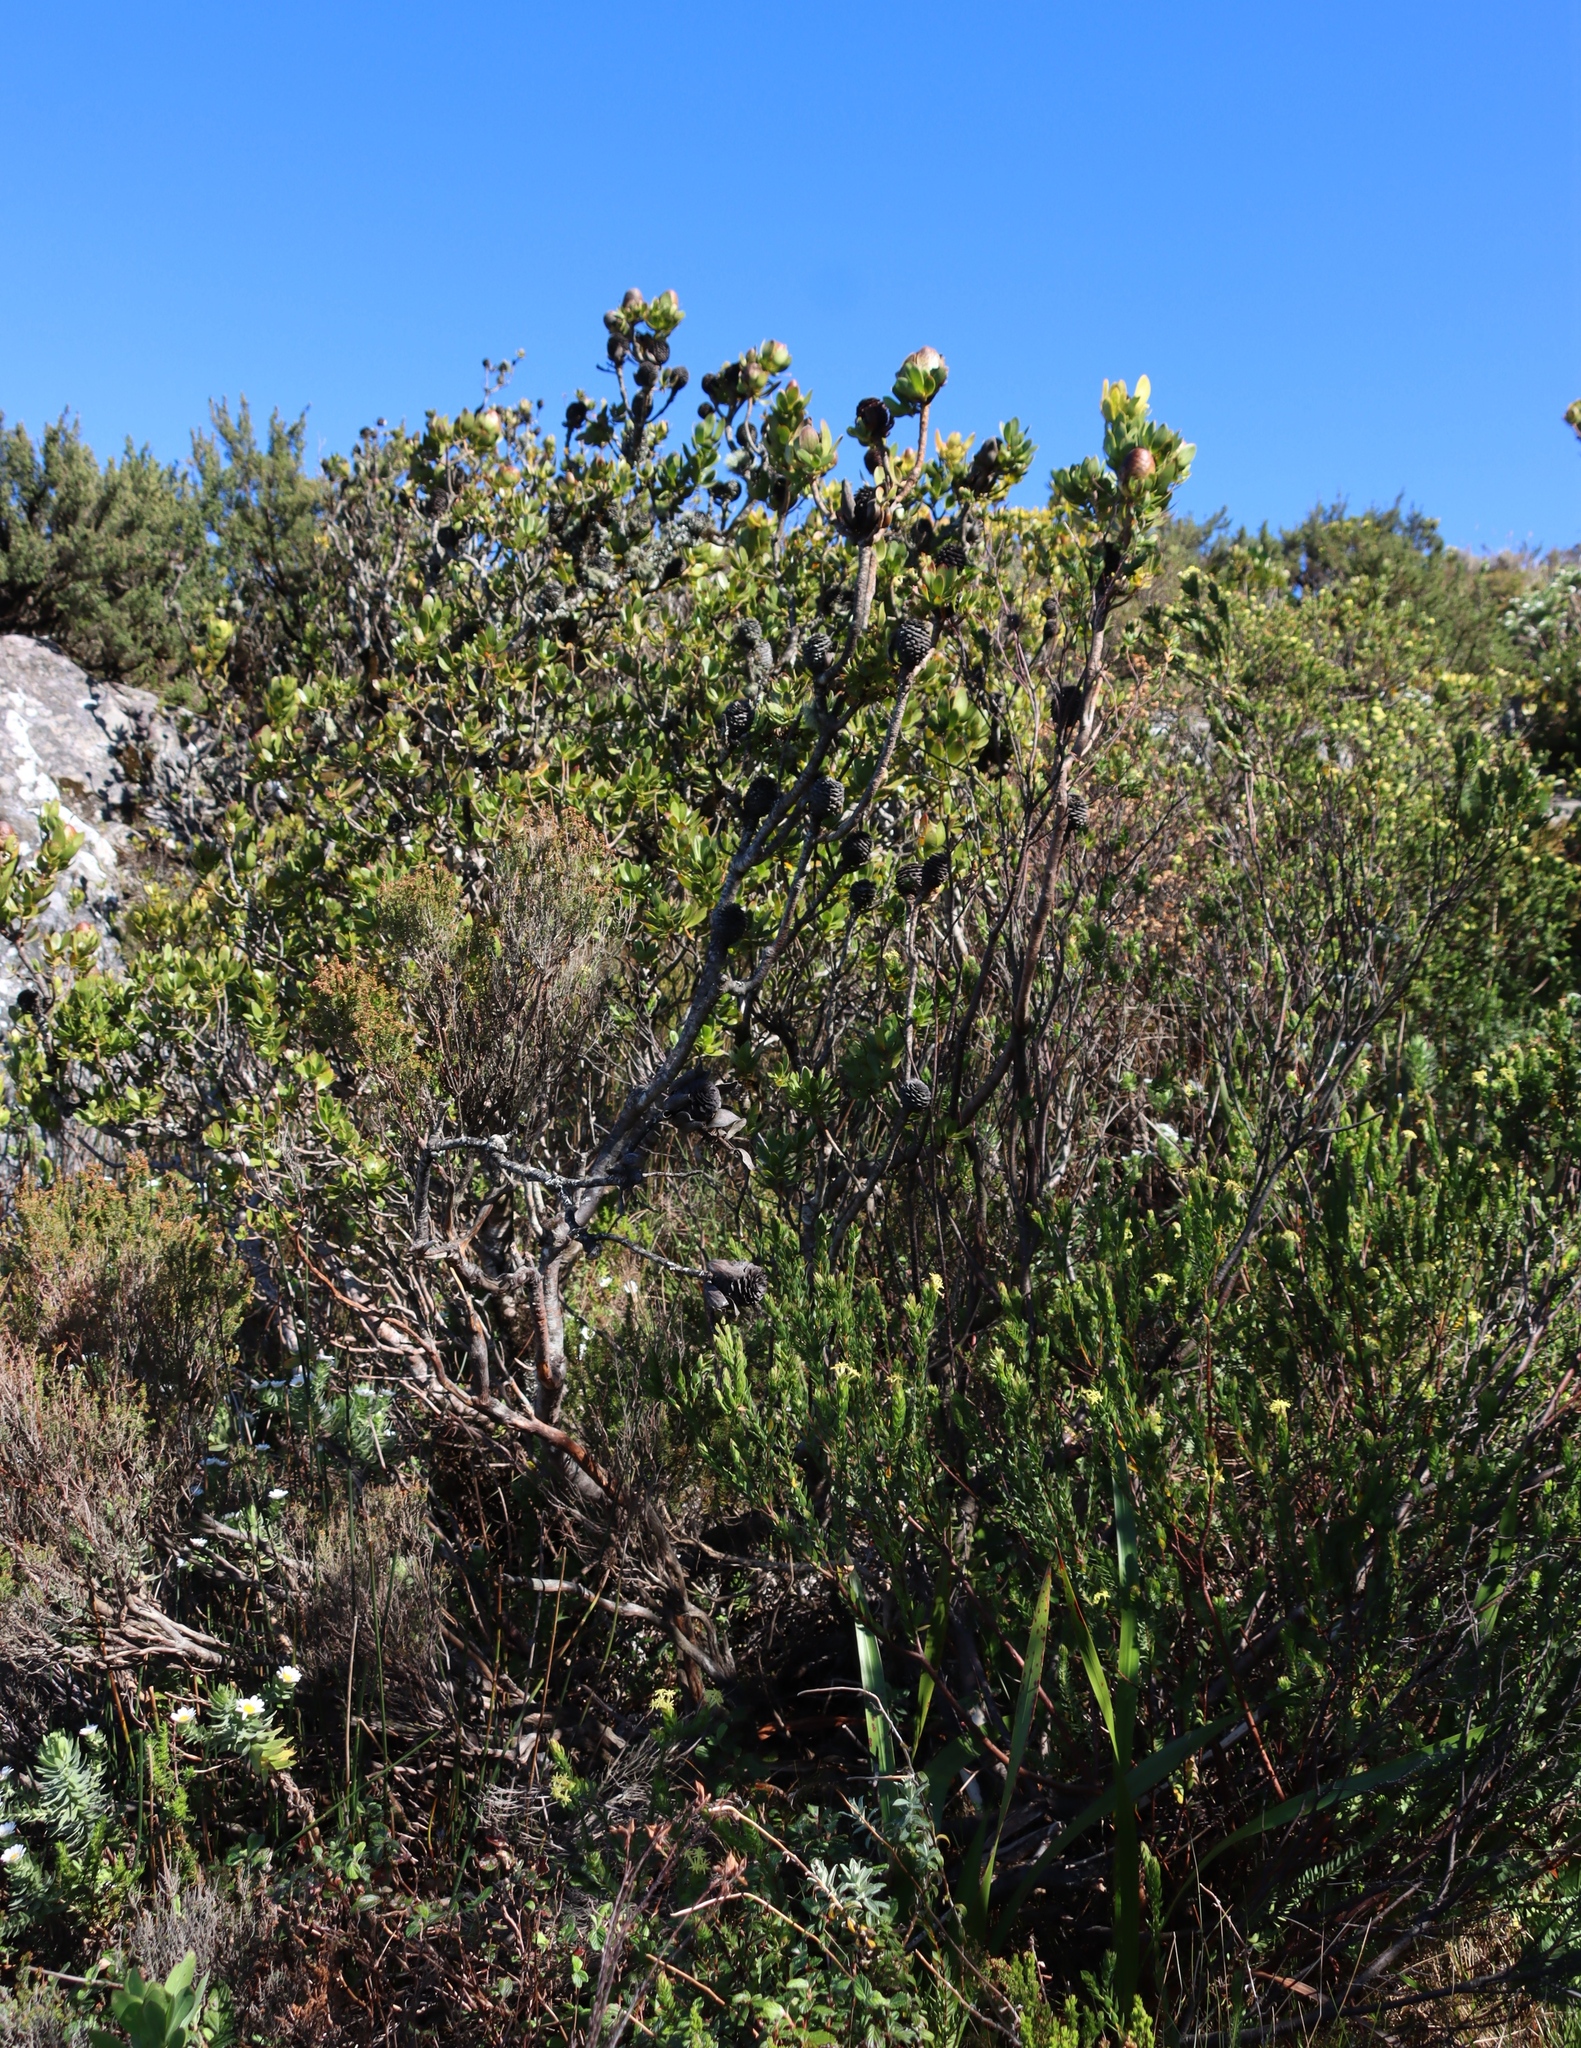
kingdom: Plantae
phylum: Tracheophyta
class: Magnoliopsida
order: Malvales
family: Thymelaeaceae
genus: Gnidia
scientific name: Gnidia oppositifolia
